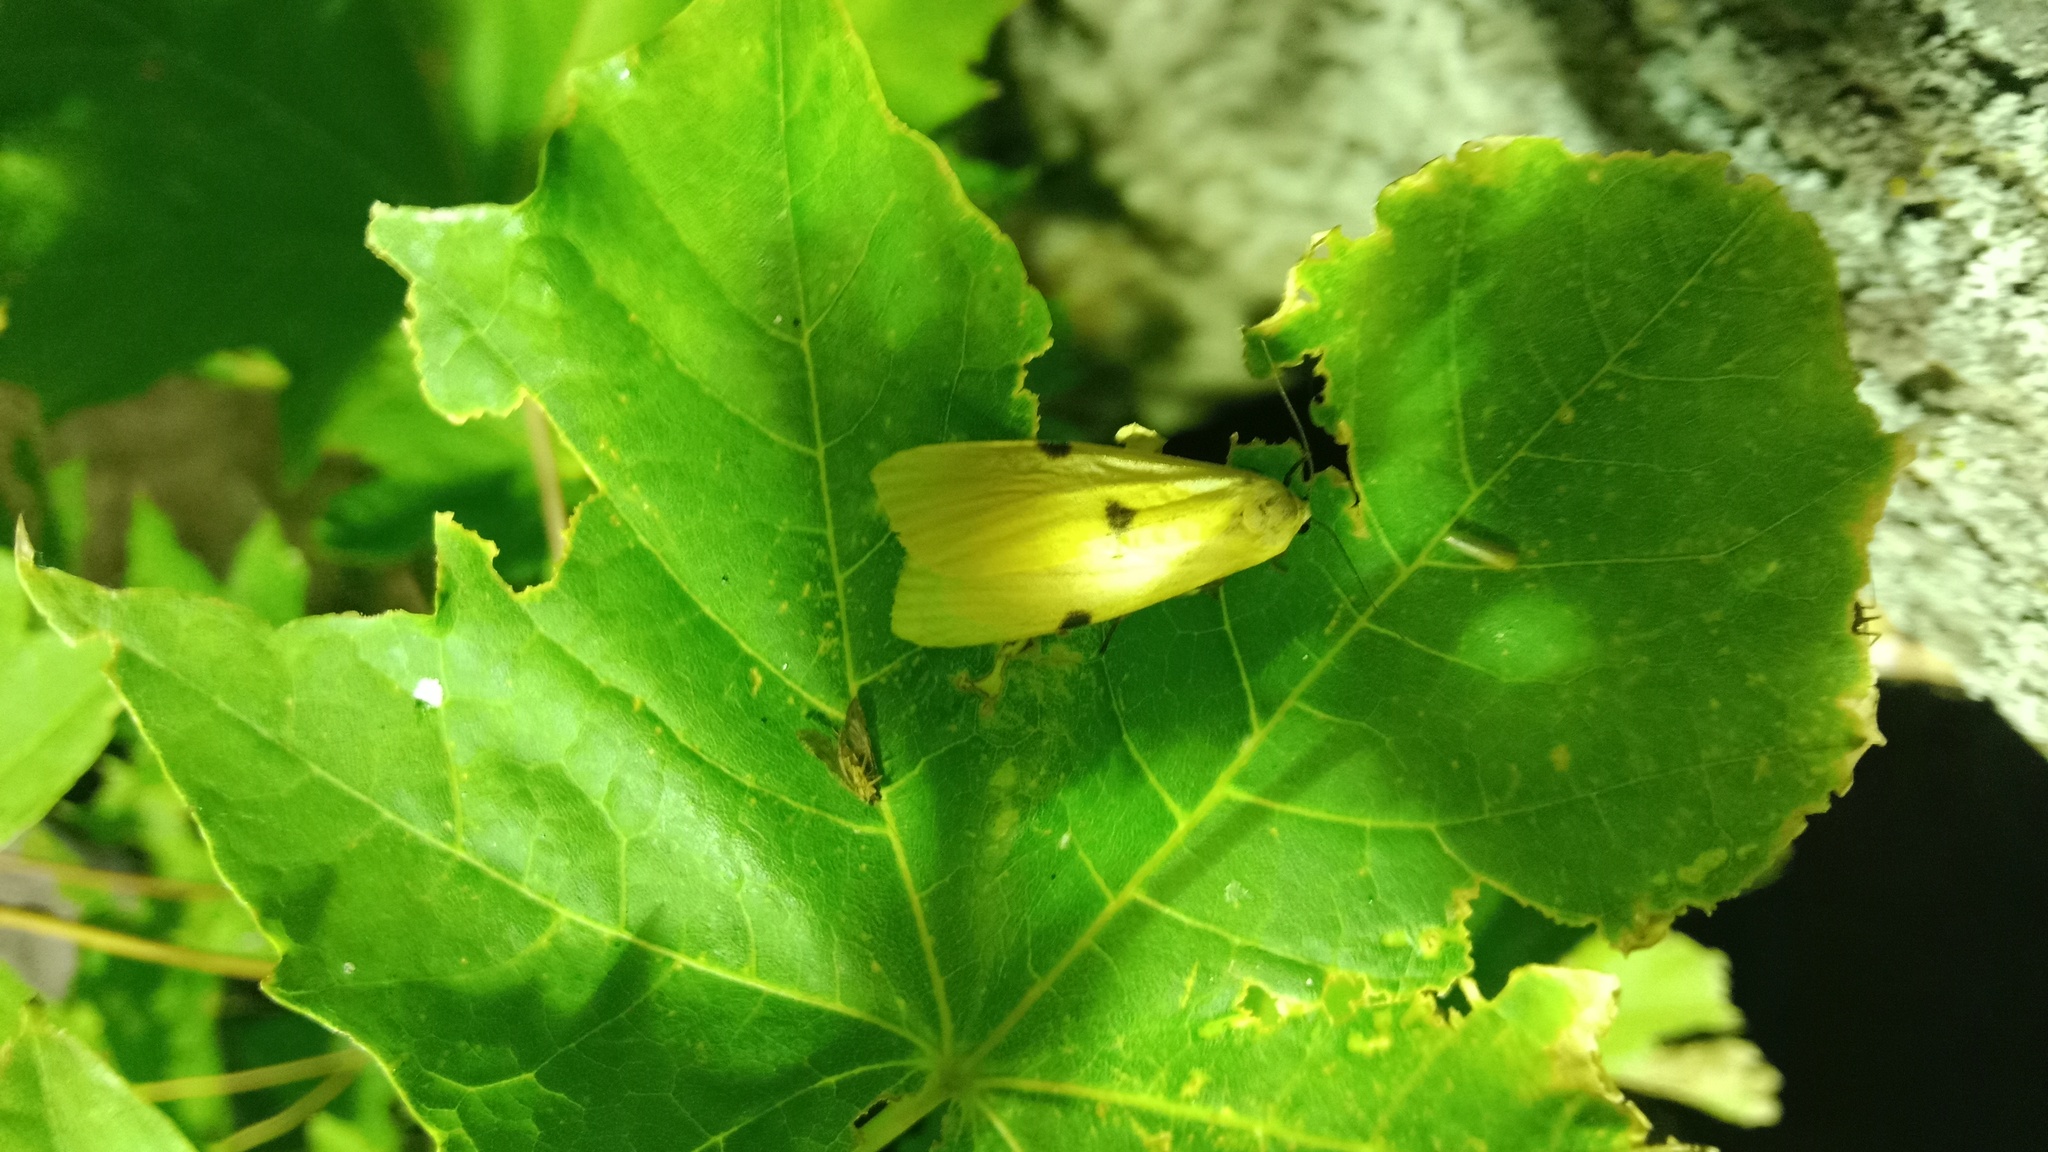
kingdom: Animalia
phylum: Arthropoda
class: Insecta
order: Lepidoptera
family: Erebidae
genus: Lithosia
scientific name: Lithosia quadra
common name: Four-spotted footman
